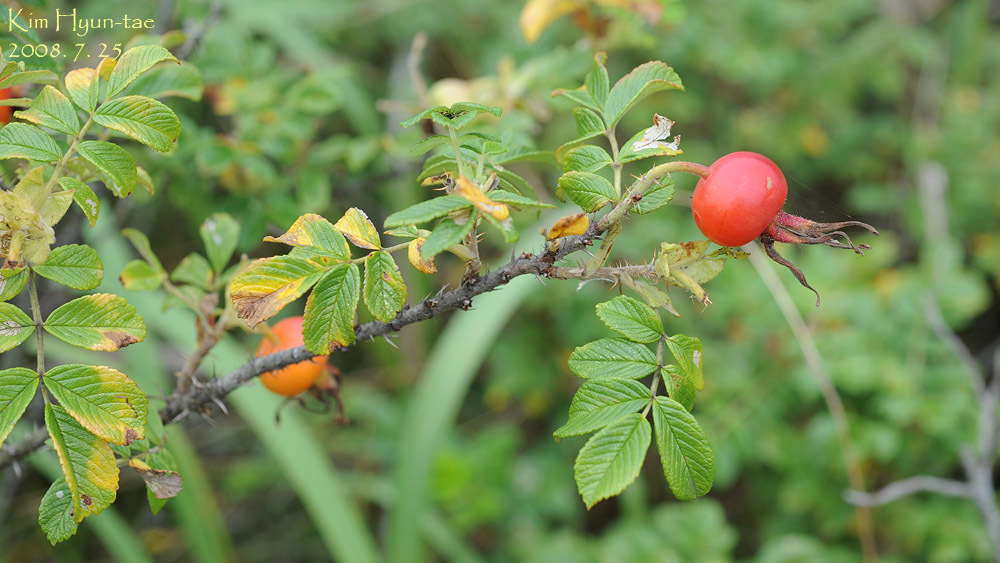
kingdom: Plantae
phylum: Tracheophyta
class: Magnoliopsida
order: Rosales
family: Rosaceae
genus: Rosa
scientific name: Rosa rugosa
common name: Japanese rose
